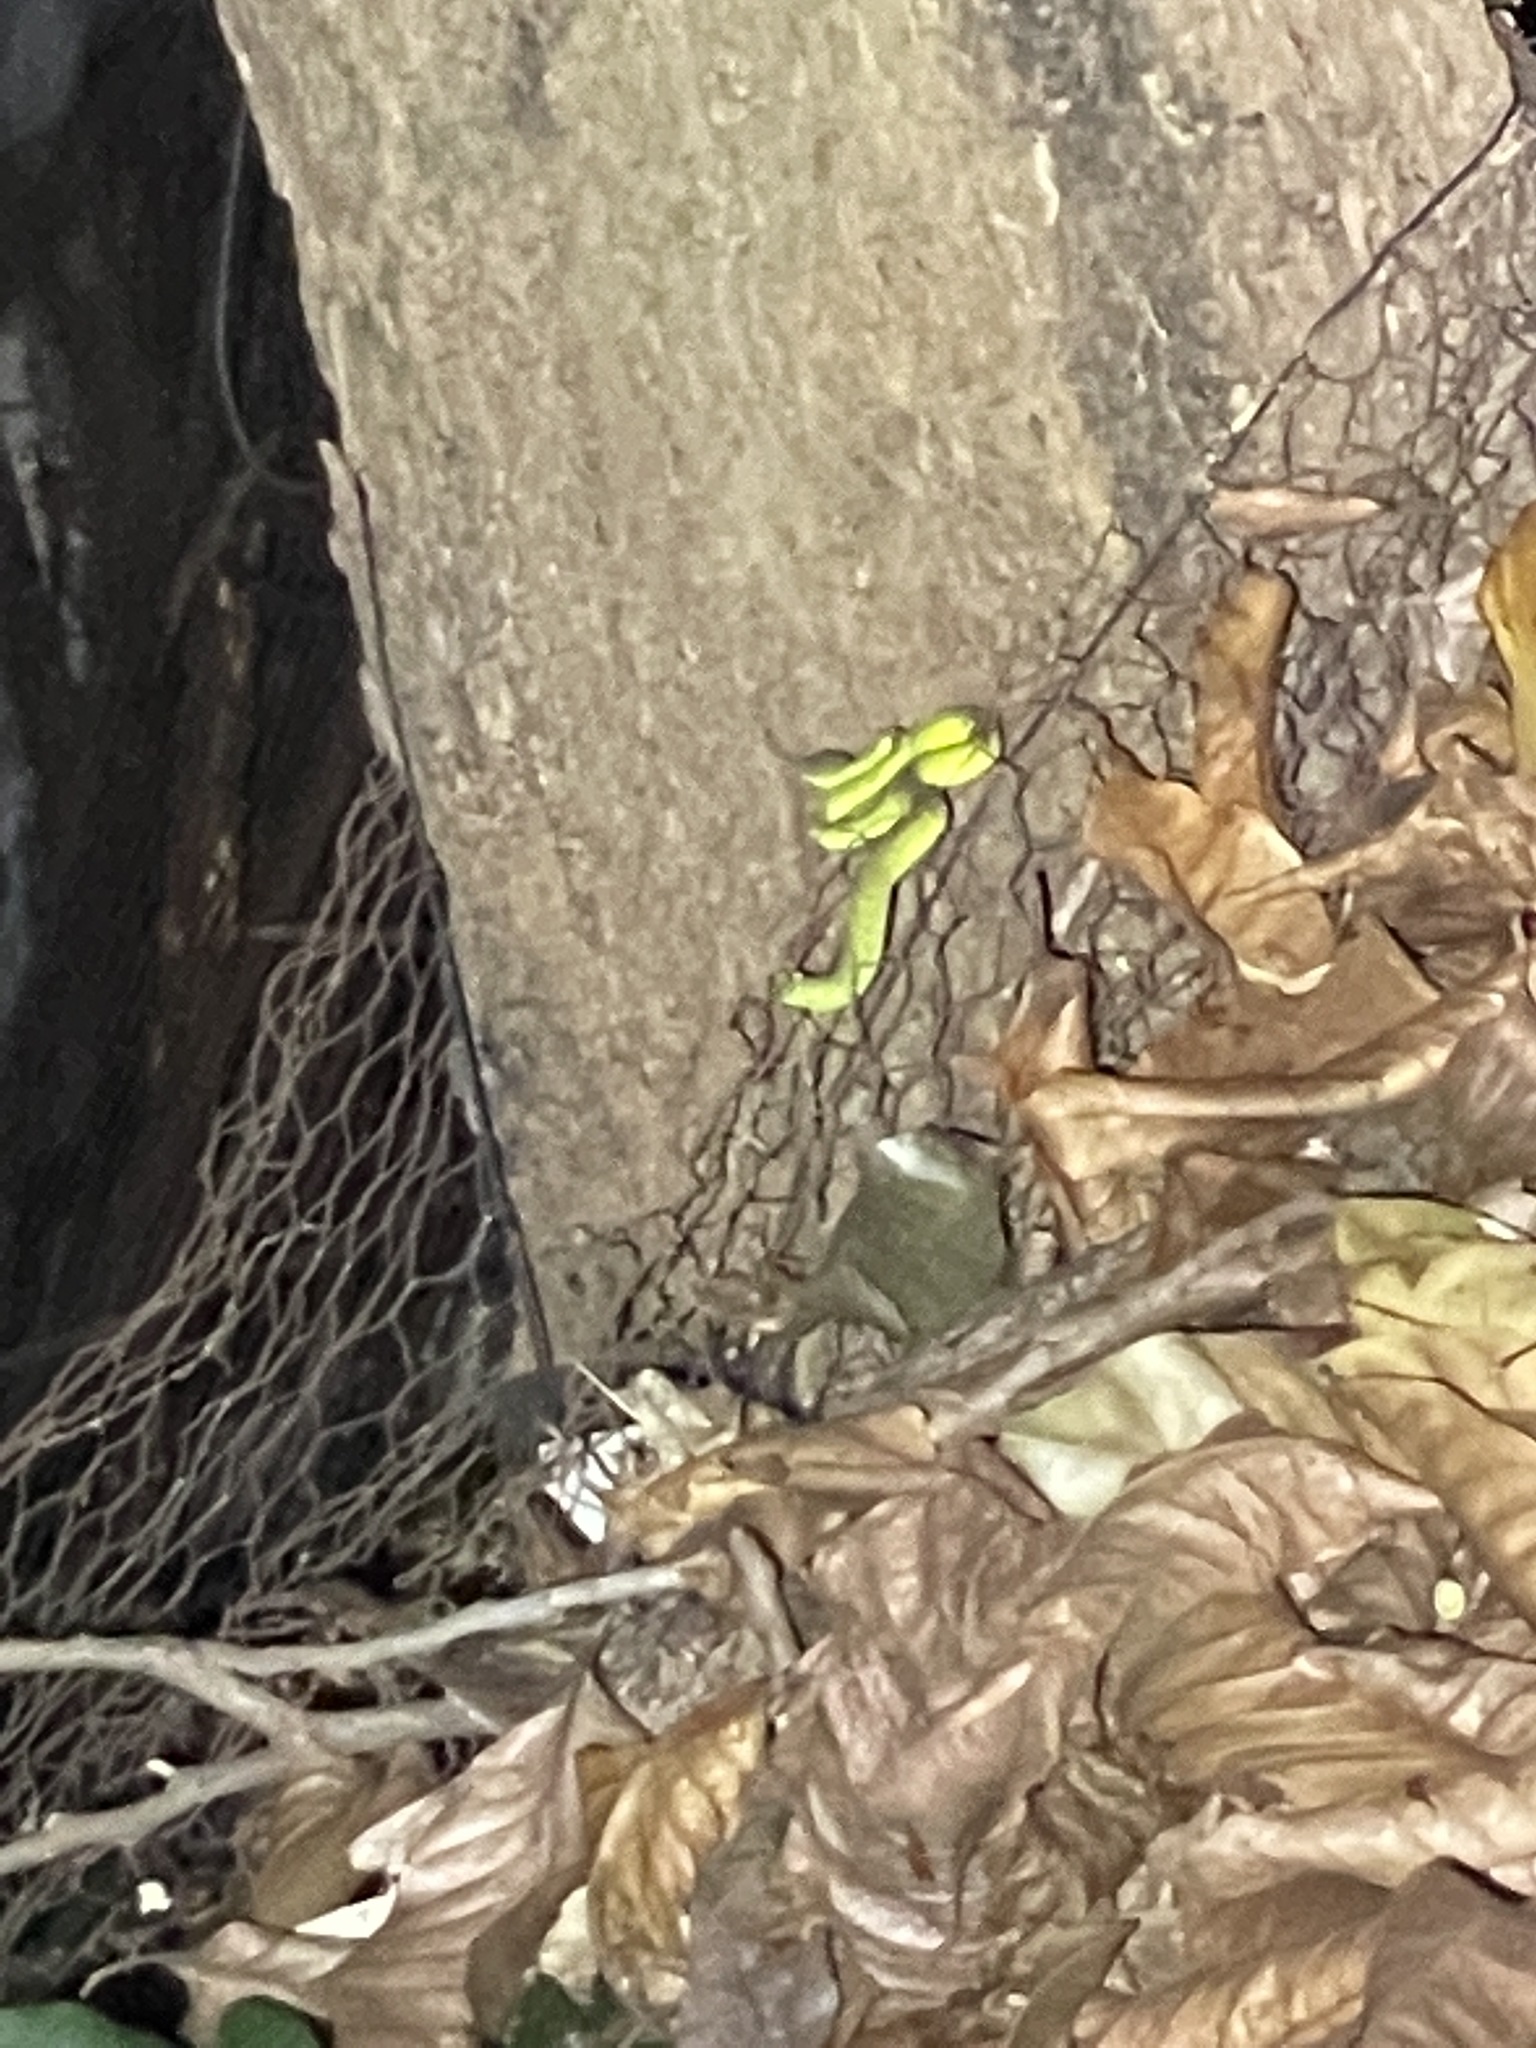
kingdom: Animalia
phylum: Chordata
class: Squamata
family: Viperidae
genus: Trimeresurus
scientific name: Trimeresurus albolabris
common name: White-lipped pitviper
